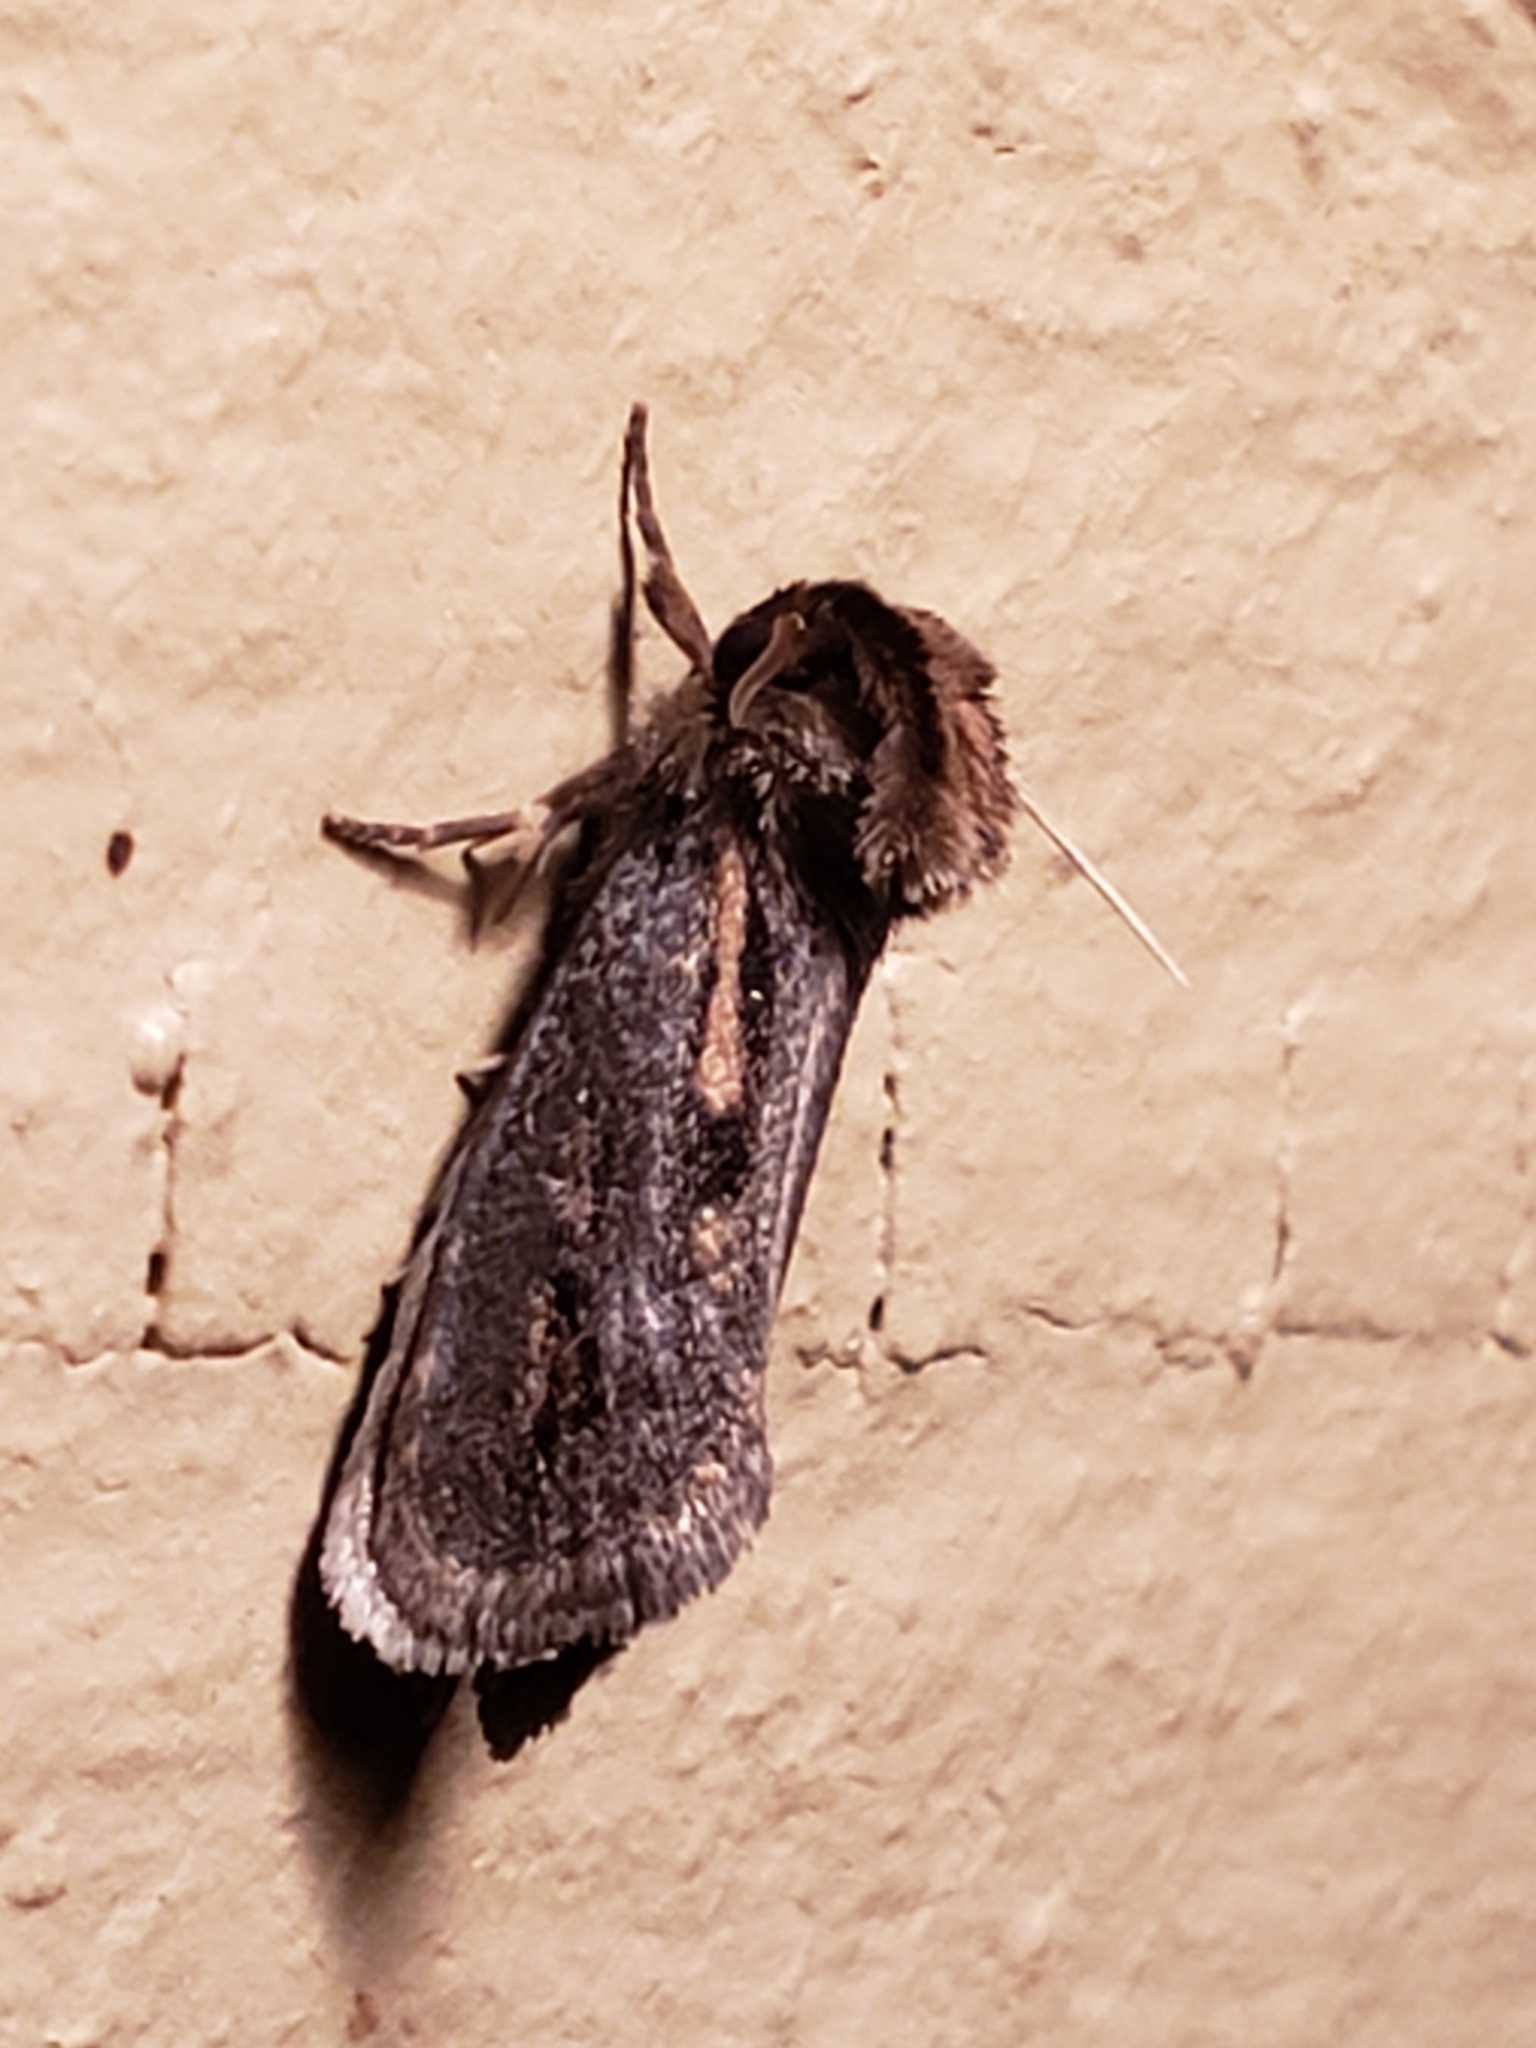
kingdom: Animalia
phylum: Arthropoda
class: Insecta
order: Lepidoptera
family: Tineidae
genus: Acrolophus
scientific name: Acrolophus popeanella
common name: Clemens' grass tubeworm moth
